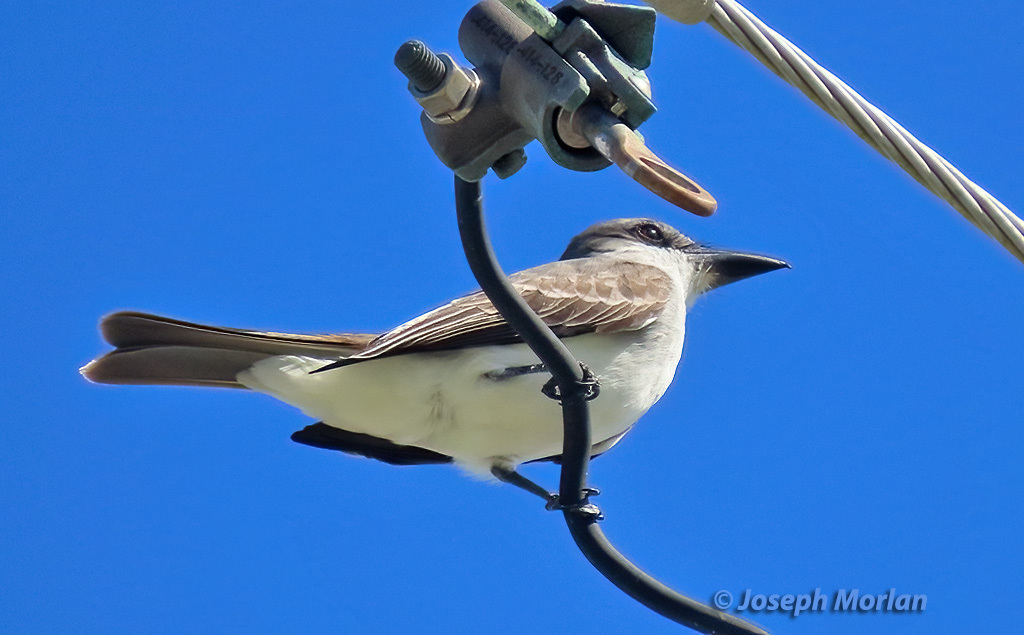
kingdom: Animalia
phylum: Chordata
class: Aves
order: Passeriformes
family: Tyrannidae
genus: Tyrannus
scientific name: Tyrannus dominicensis
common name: Gray kingbird
